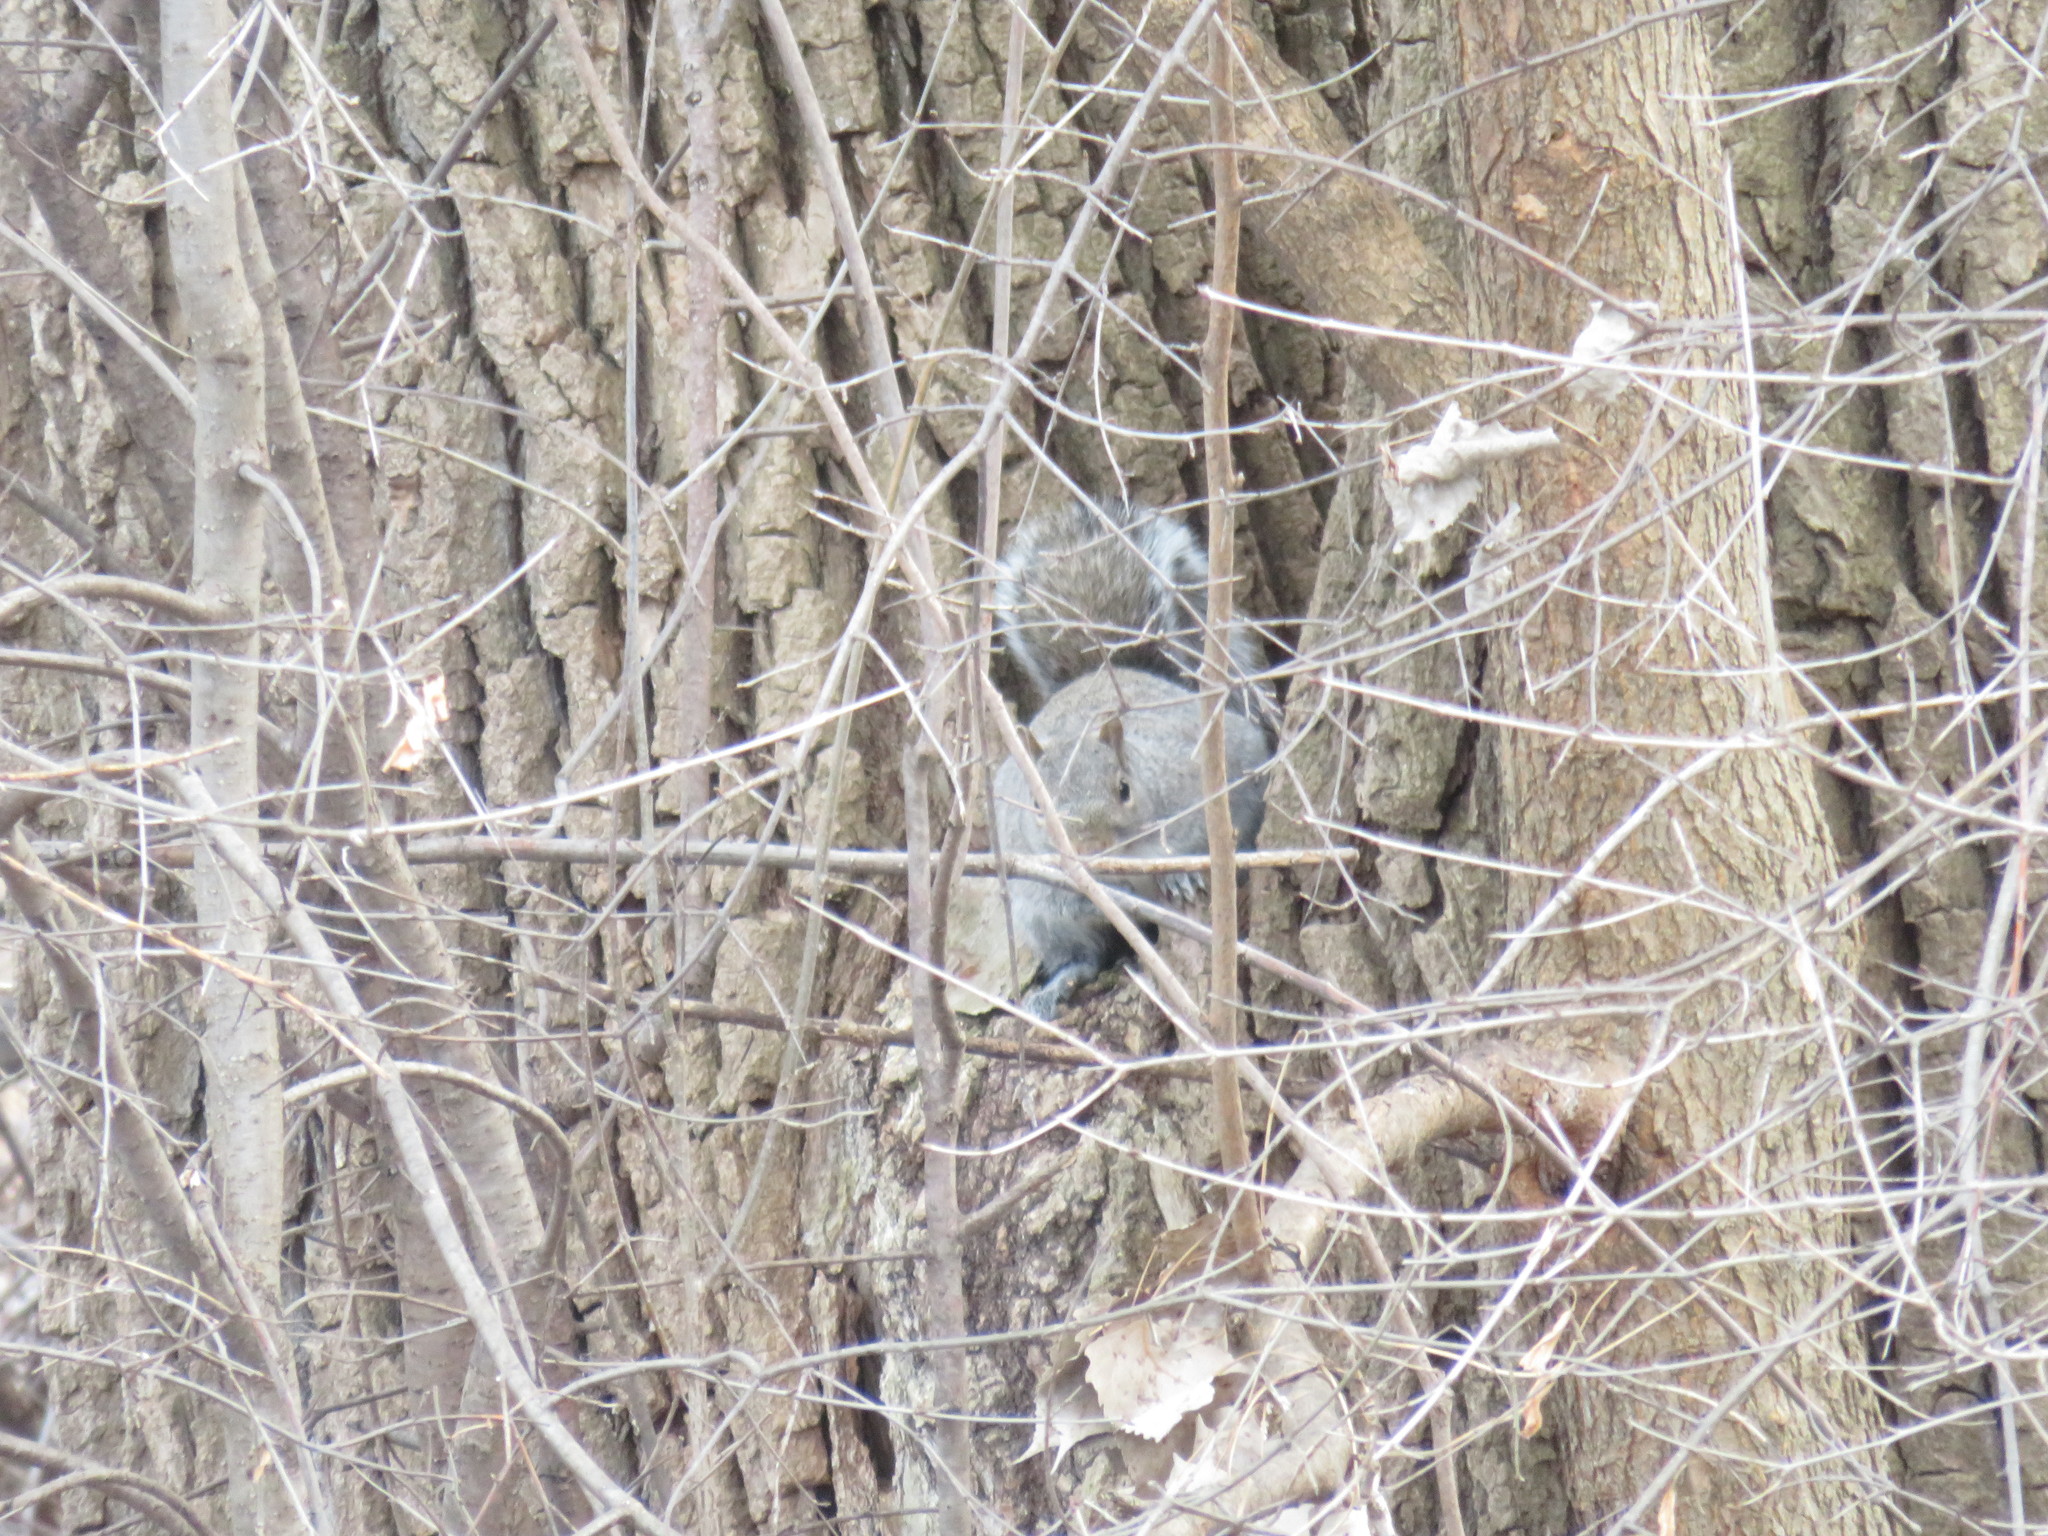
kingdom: Animalia
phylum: Chordata
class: Mammalia
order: Rodentia
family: Sciuridae
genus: Sciurus
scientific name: Sciurus carolinensis
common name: Eastern gray squirrel
